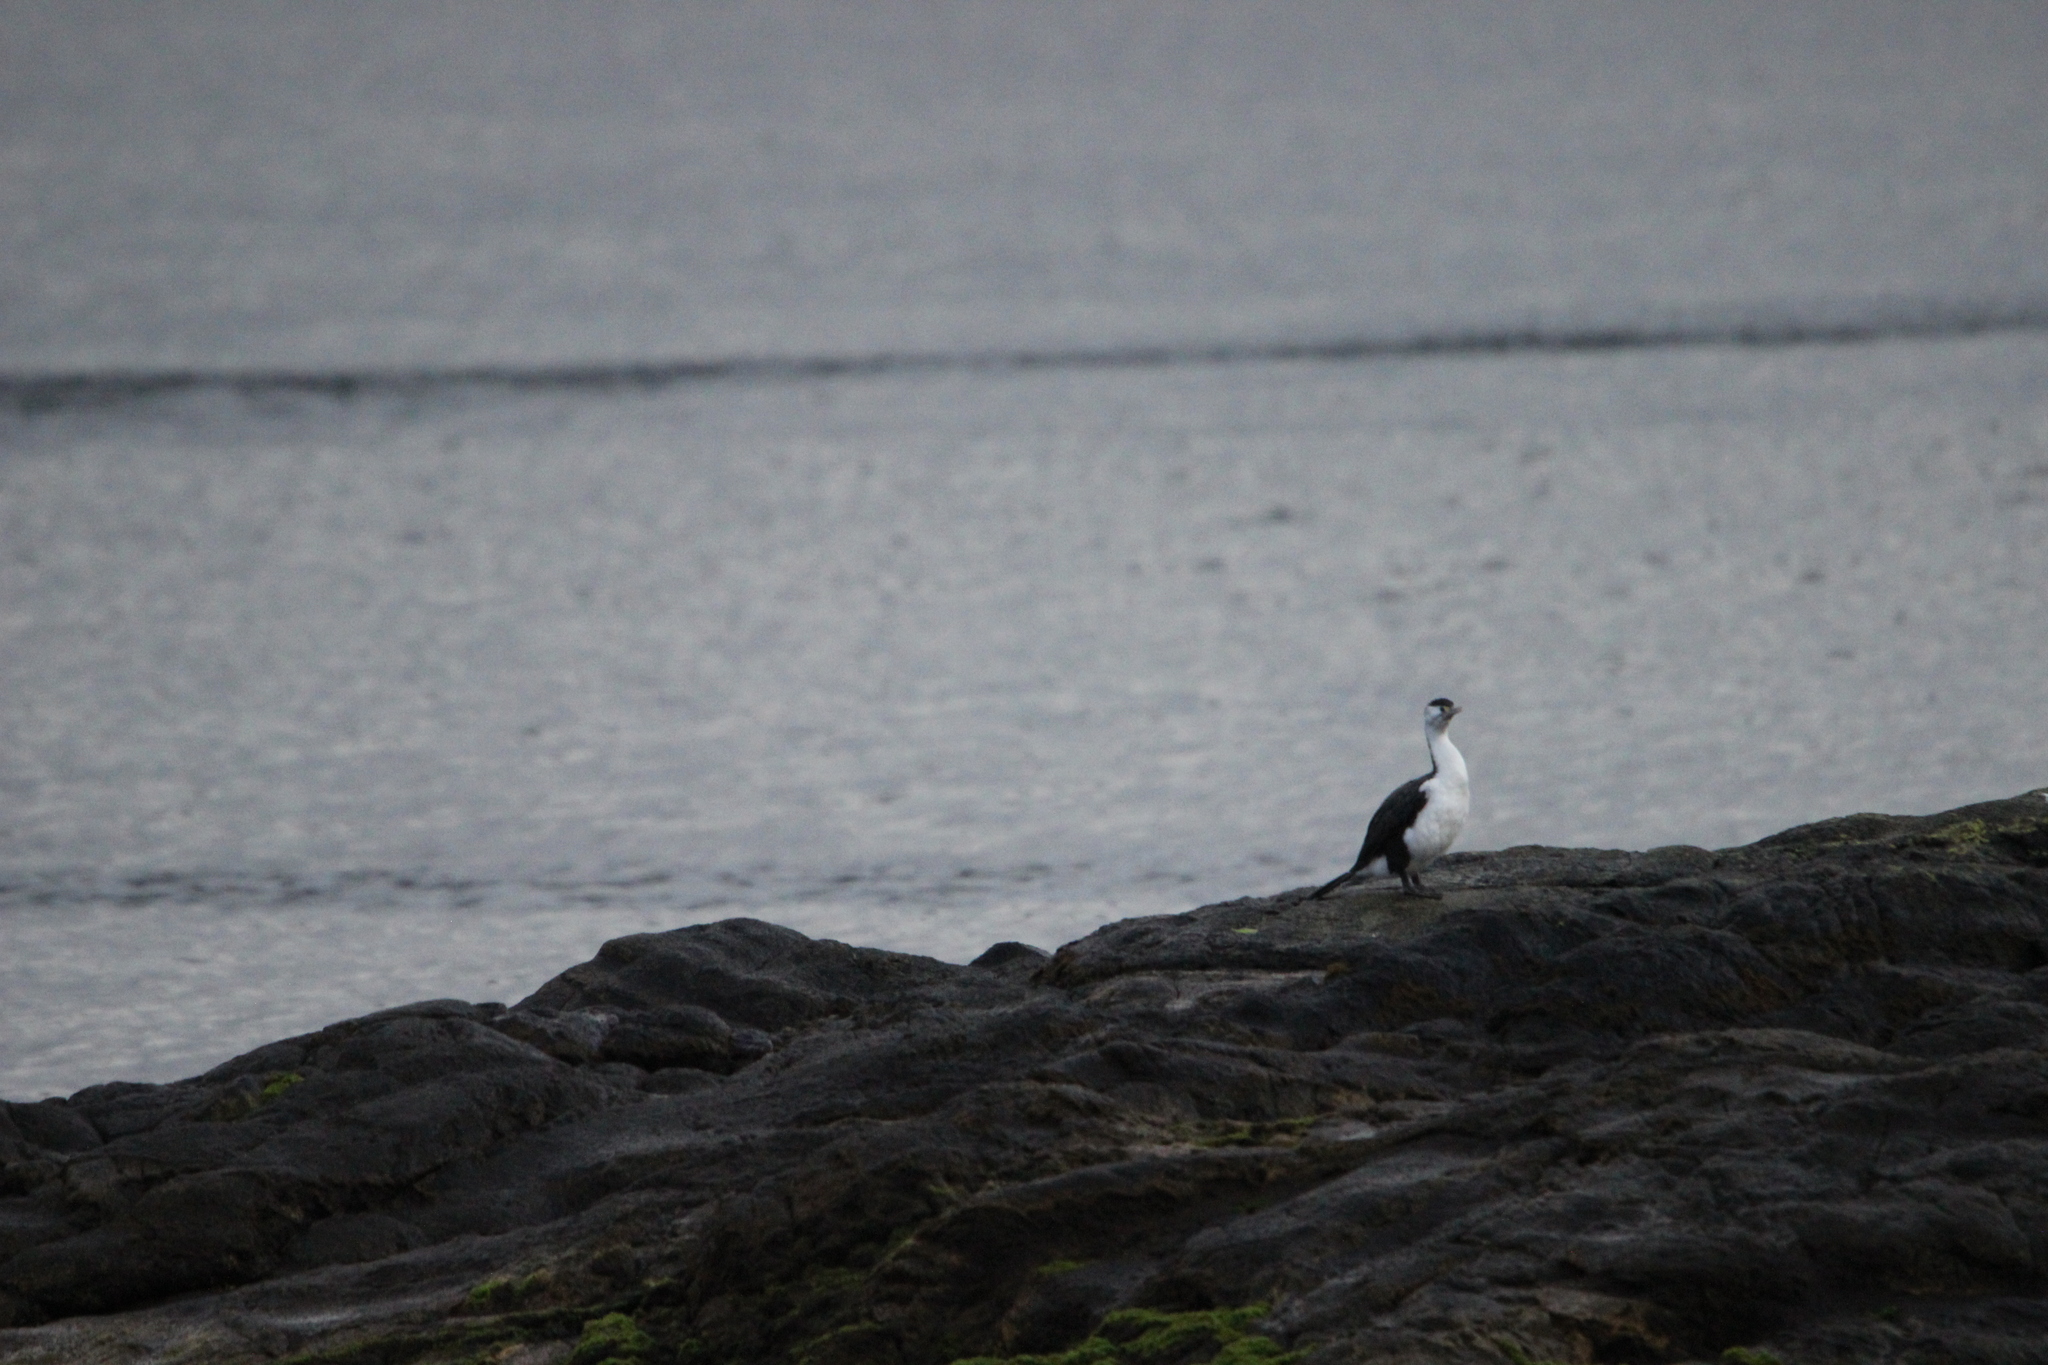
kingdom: Animalia
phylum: Chordata
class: Aves
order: Suliformes
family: Phalacrocoracidae
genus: Phalacrocorax
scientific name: Phalacrocorax varius
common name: Pied cormorant
